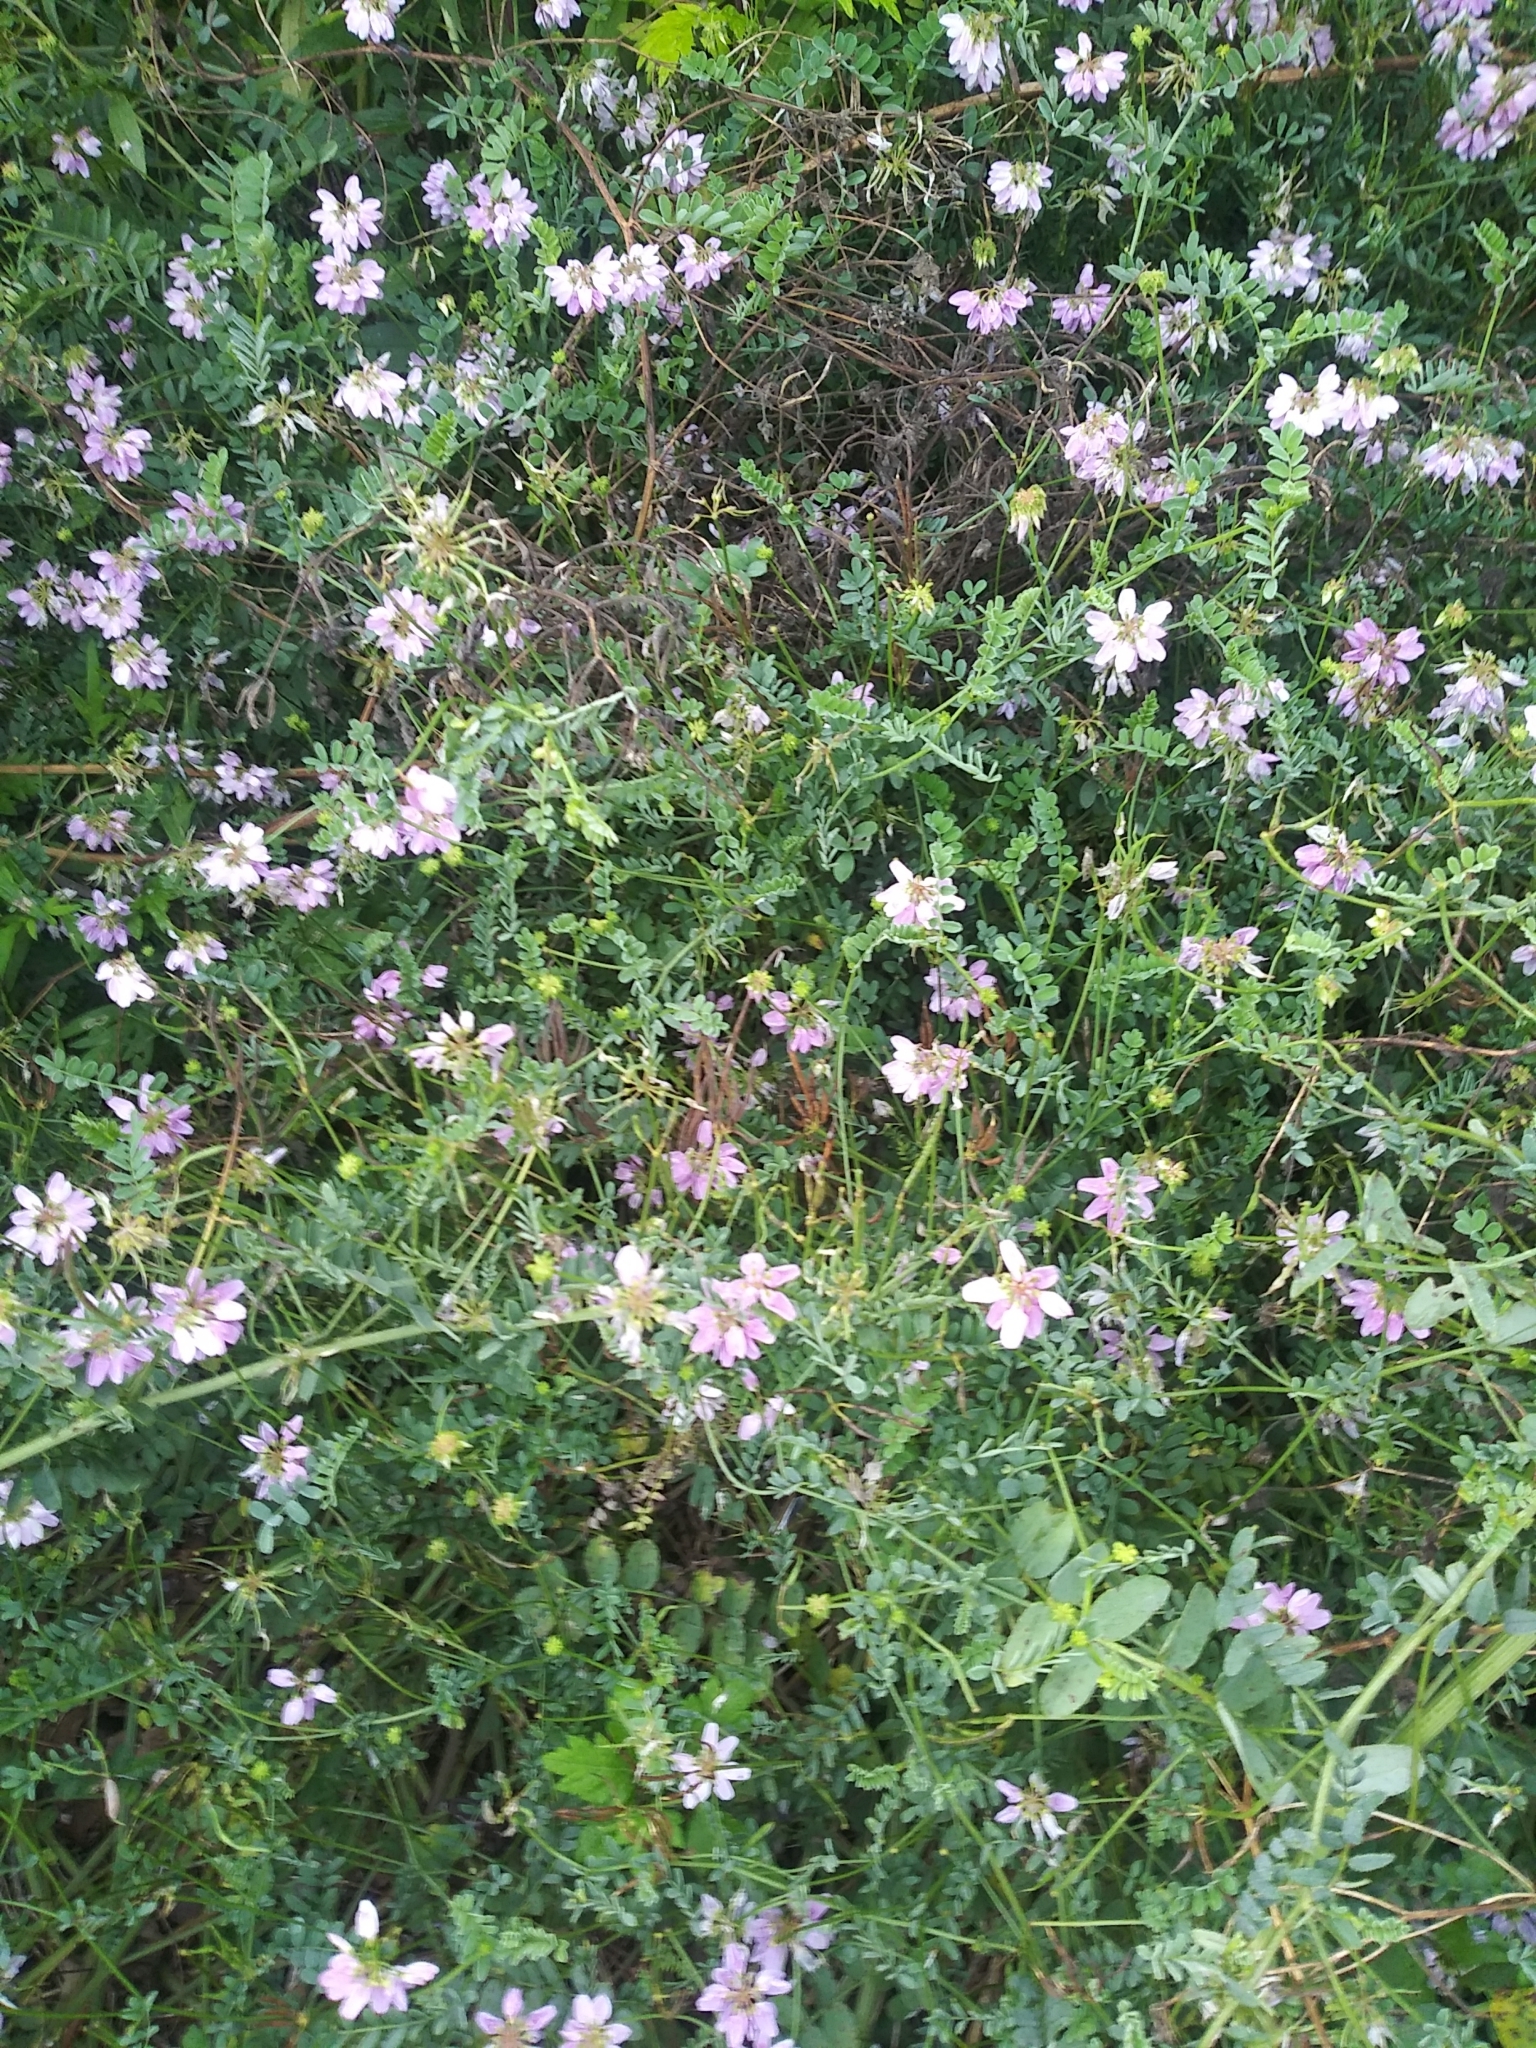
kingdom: Plantae
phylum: Tracheophyta
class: Magnoliopsida
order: Fabales
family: Fabaceae
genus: Coronilla
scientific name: Coronilla varia
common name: Crownvetch
